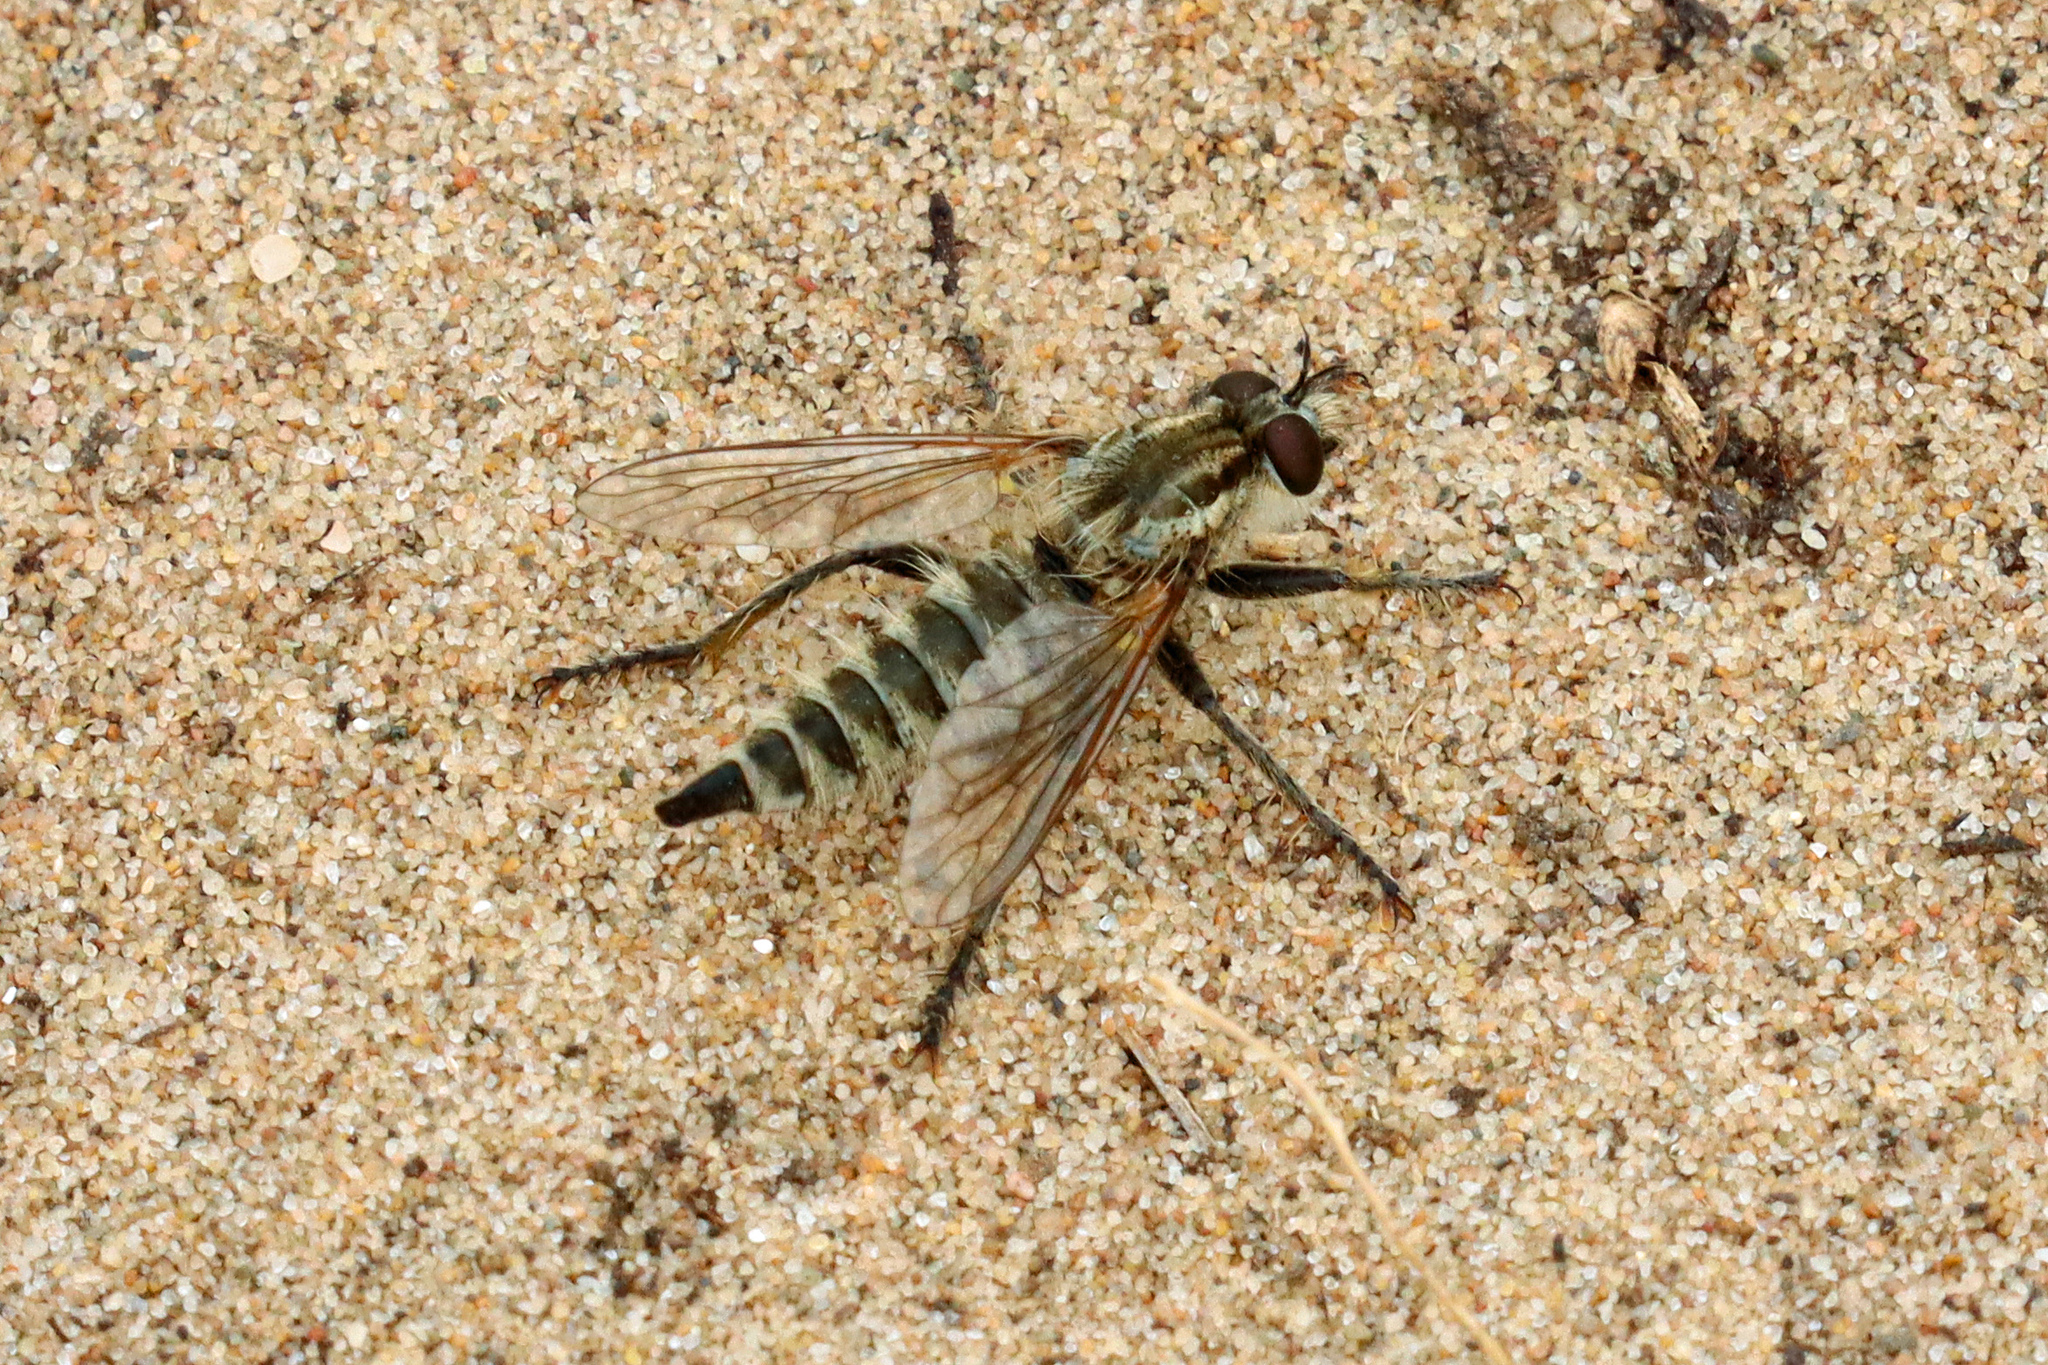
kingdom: Animalia
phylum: Arthropoda
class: Insecta
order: Diptera
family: Asilidae
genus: Dysmachus
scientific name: Dysmachus trigonus
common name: Fan-bristled robberfly
